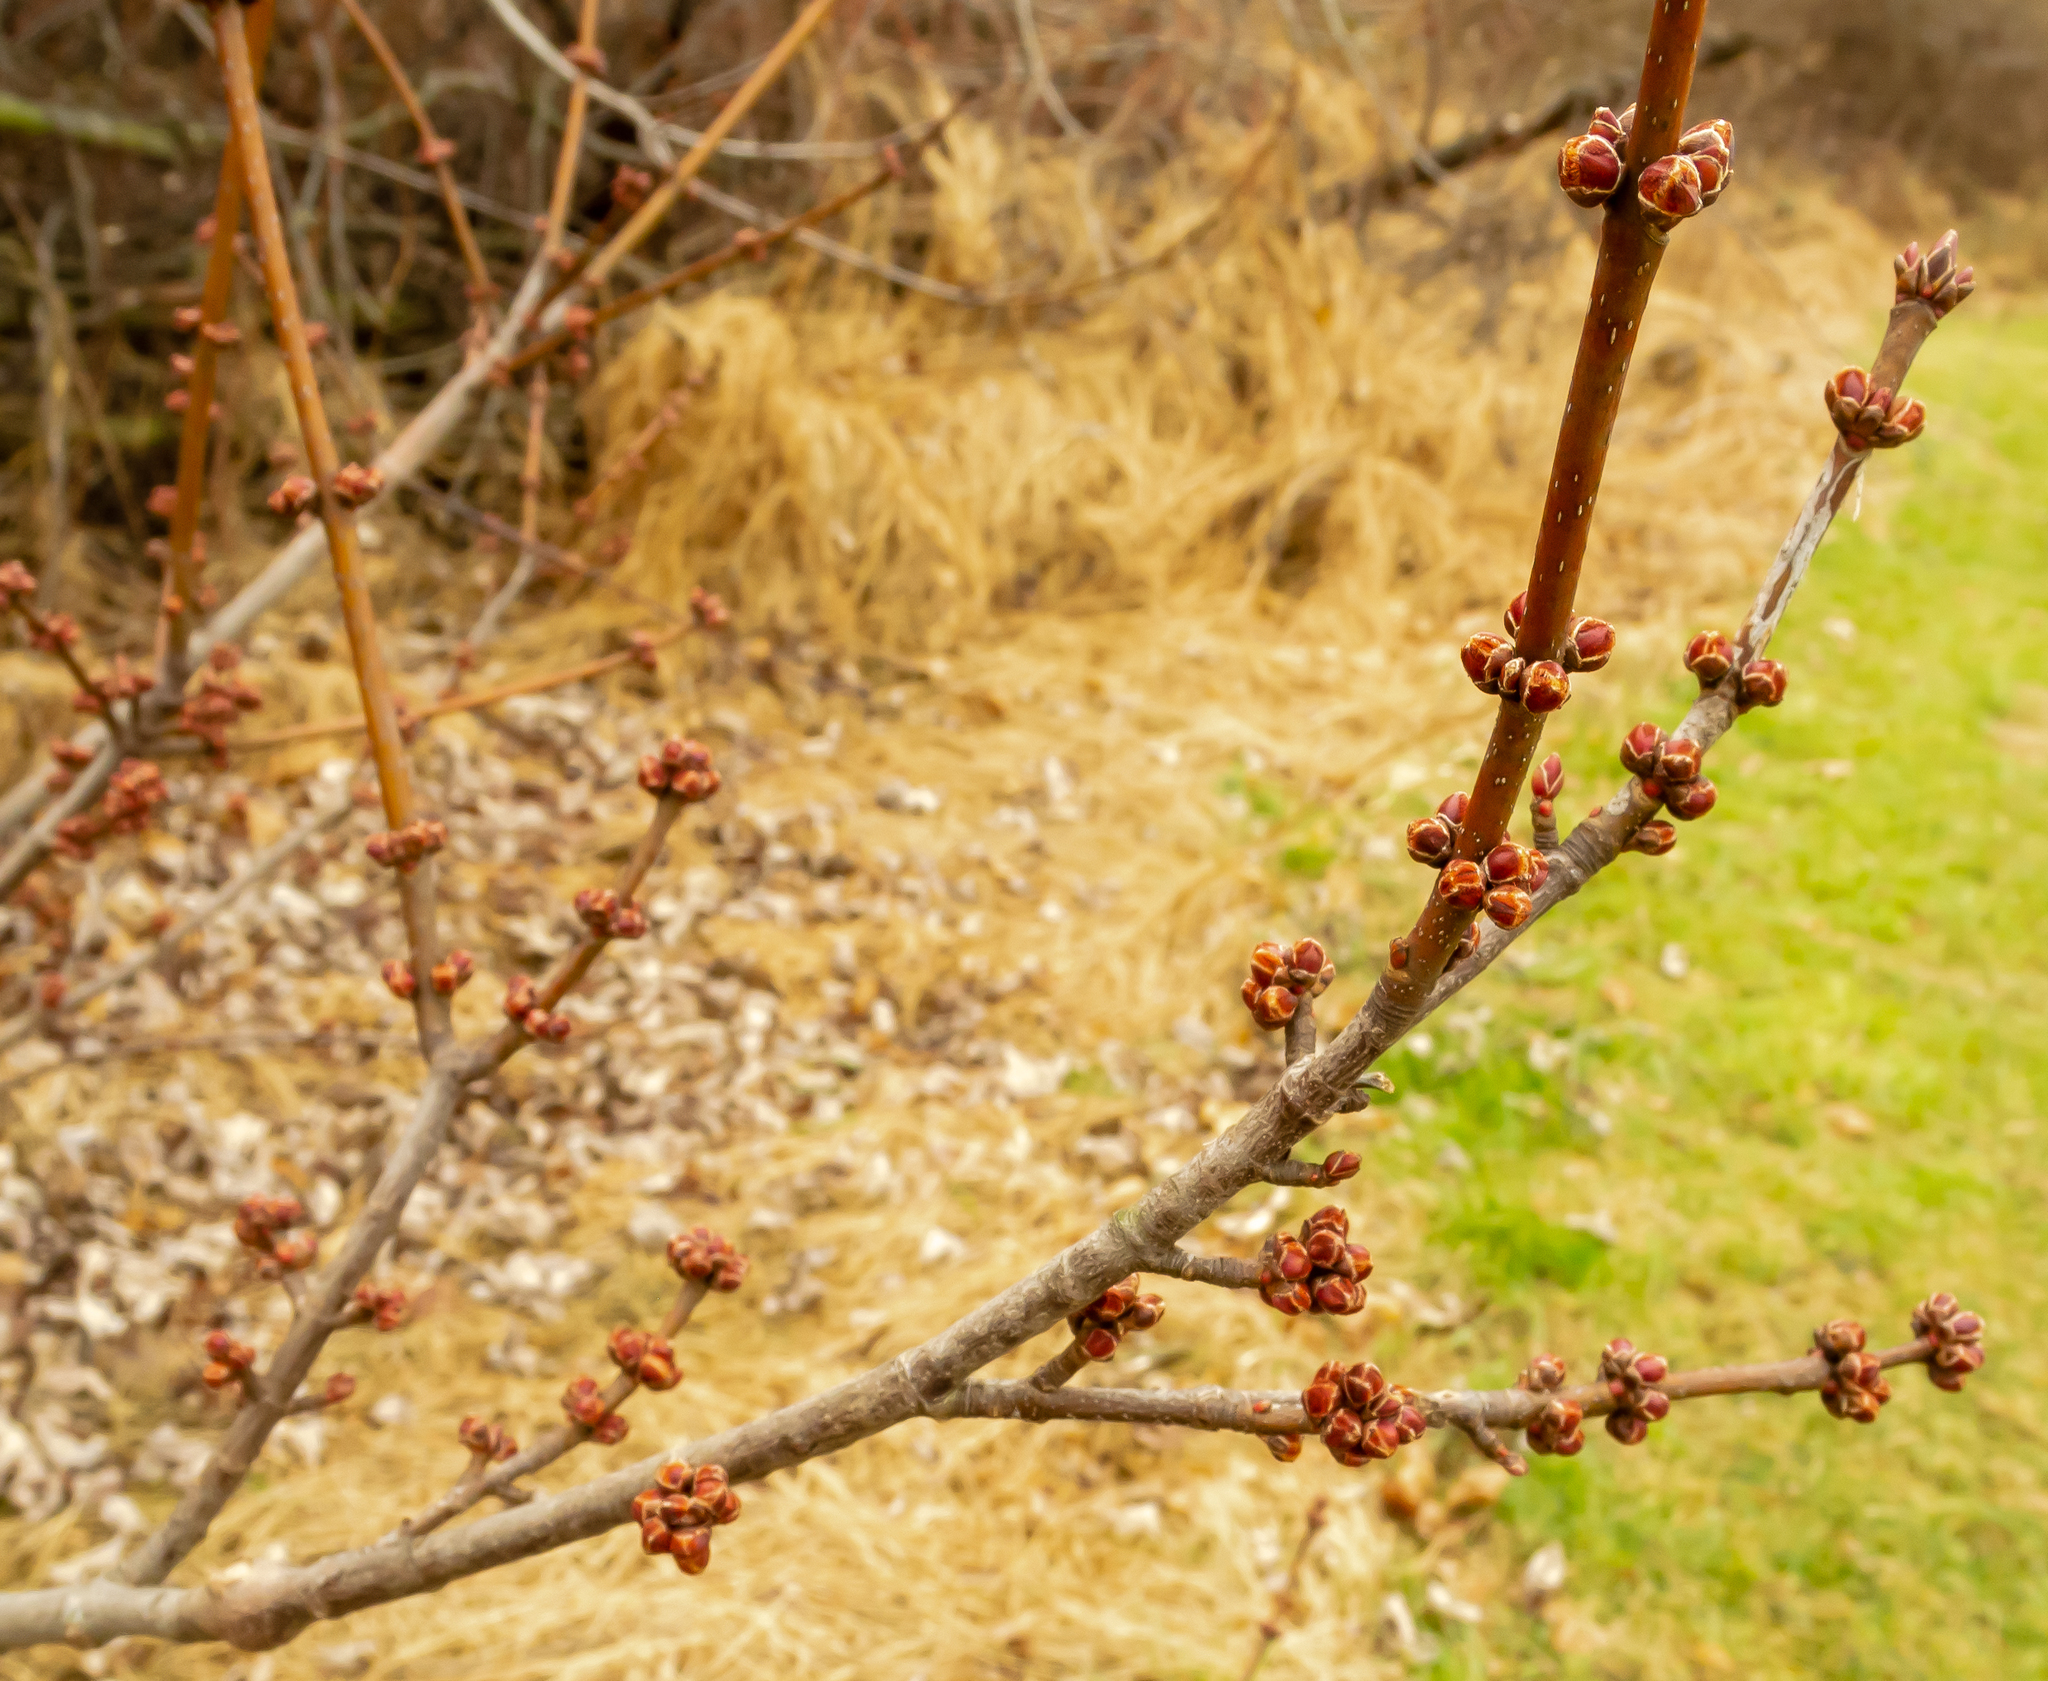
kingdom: Plantae
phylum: Tracheophyta
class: Magnoliopsida
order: Sapindales
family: Sapindaceae
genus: Acer
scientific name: Acer rubrum
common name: Red maple
